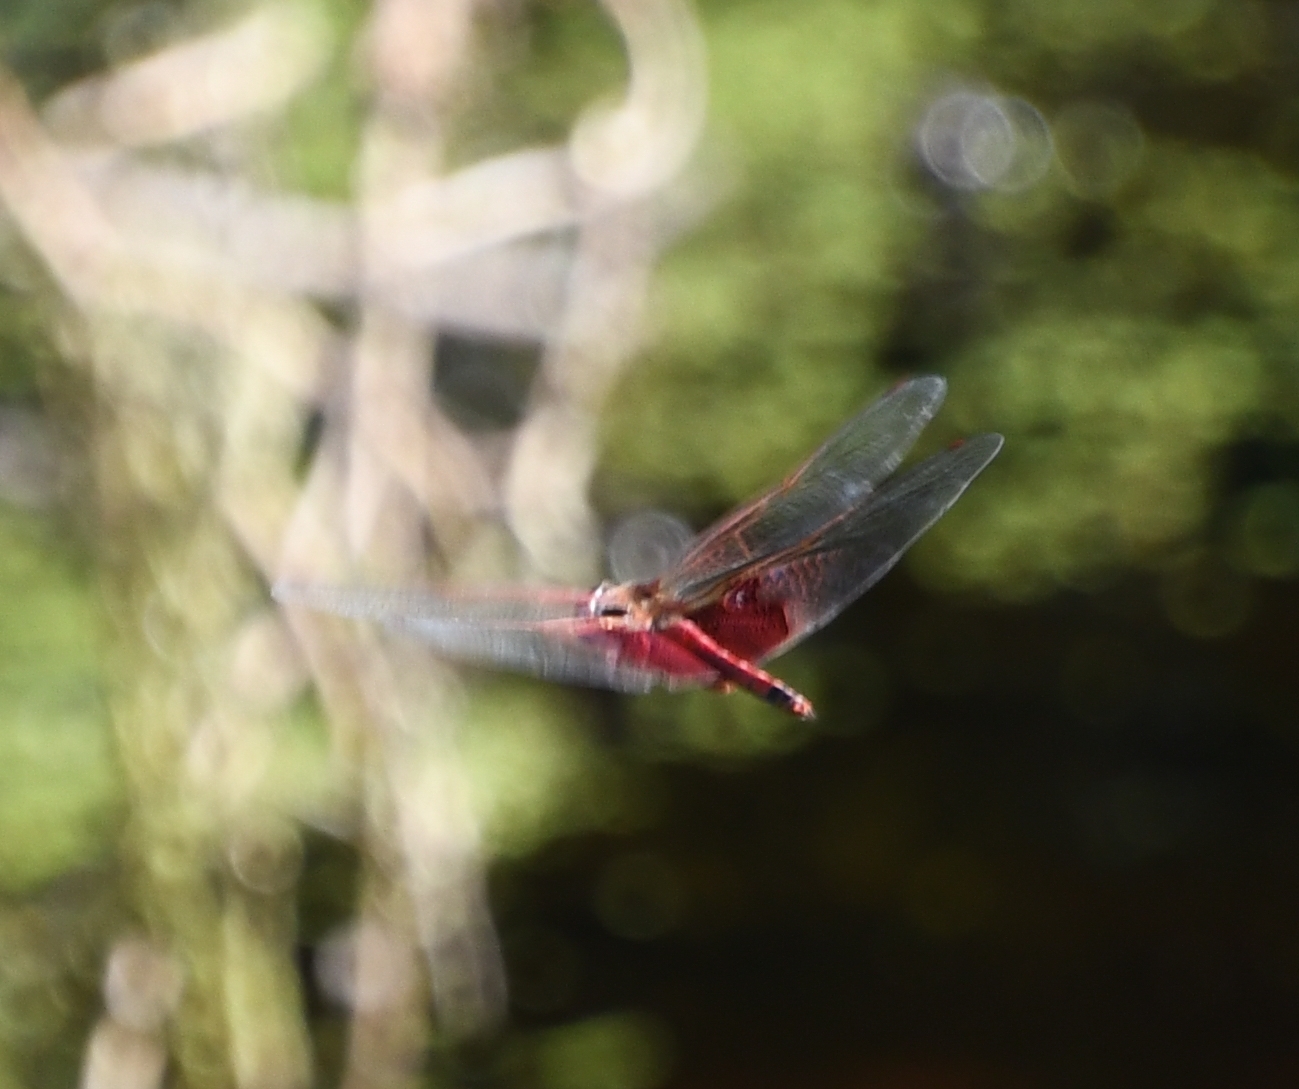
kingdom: Animalia
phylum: Arthropoda
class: Insecta
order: Odonata
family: Libellulidae
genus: Tramea
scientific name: Tramea carolina
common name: Carolina saddlebags
